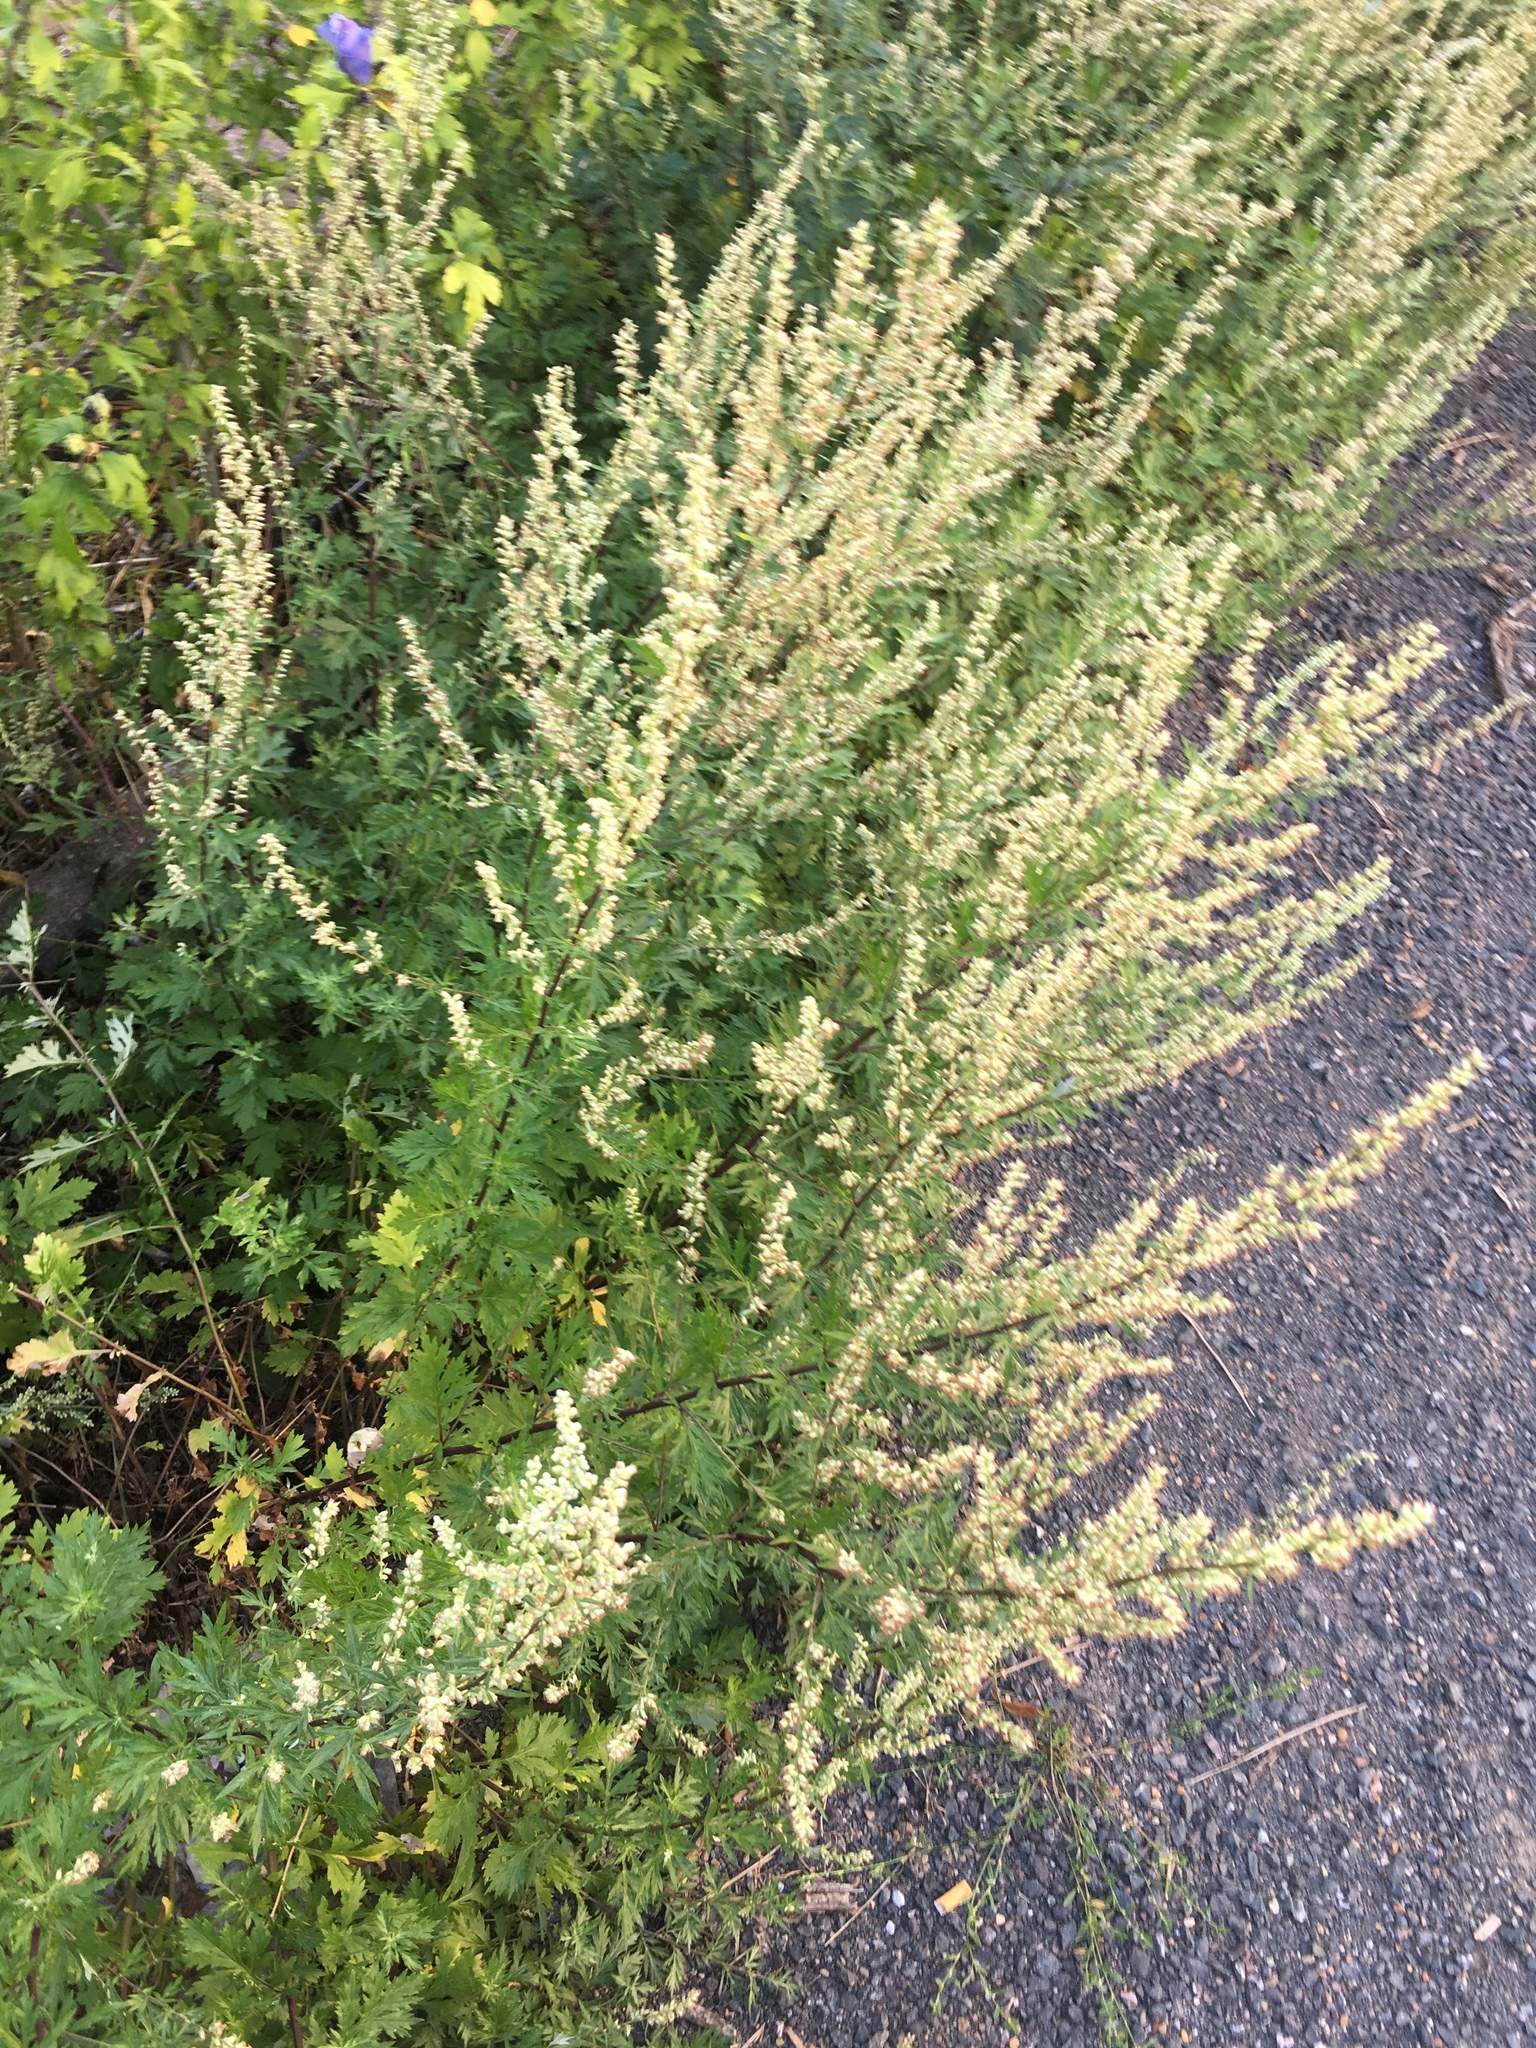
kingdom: Plantae
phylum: Tracheophyta
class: Magnoliopsida
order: Asterales
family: Asteraceae
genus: Artemisia
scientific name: Artemisia vulgaris
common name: Mugwort
